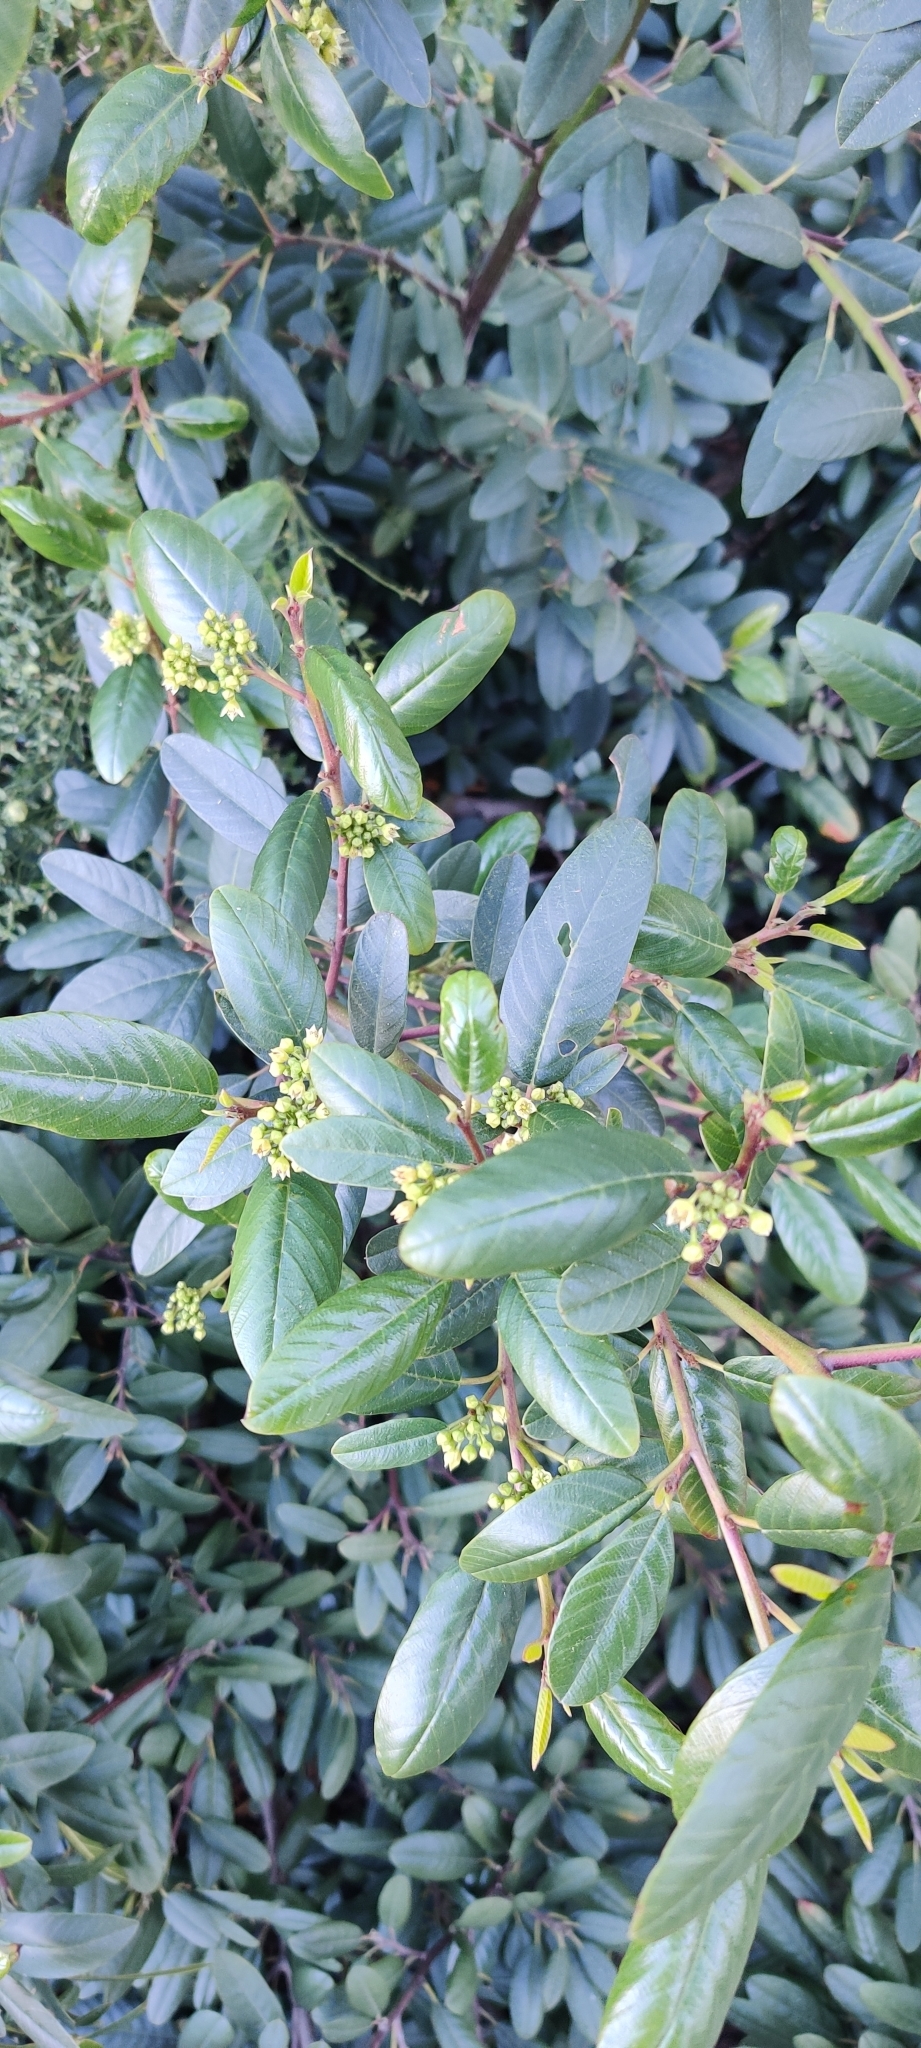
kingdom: Plantae
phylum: Tracheophyta
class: Magnoliopsida
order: Rosales
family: Rhamnaceae
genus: Frangula
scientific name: Frangula californica
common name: California buckthorn
